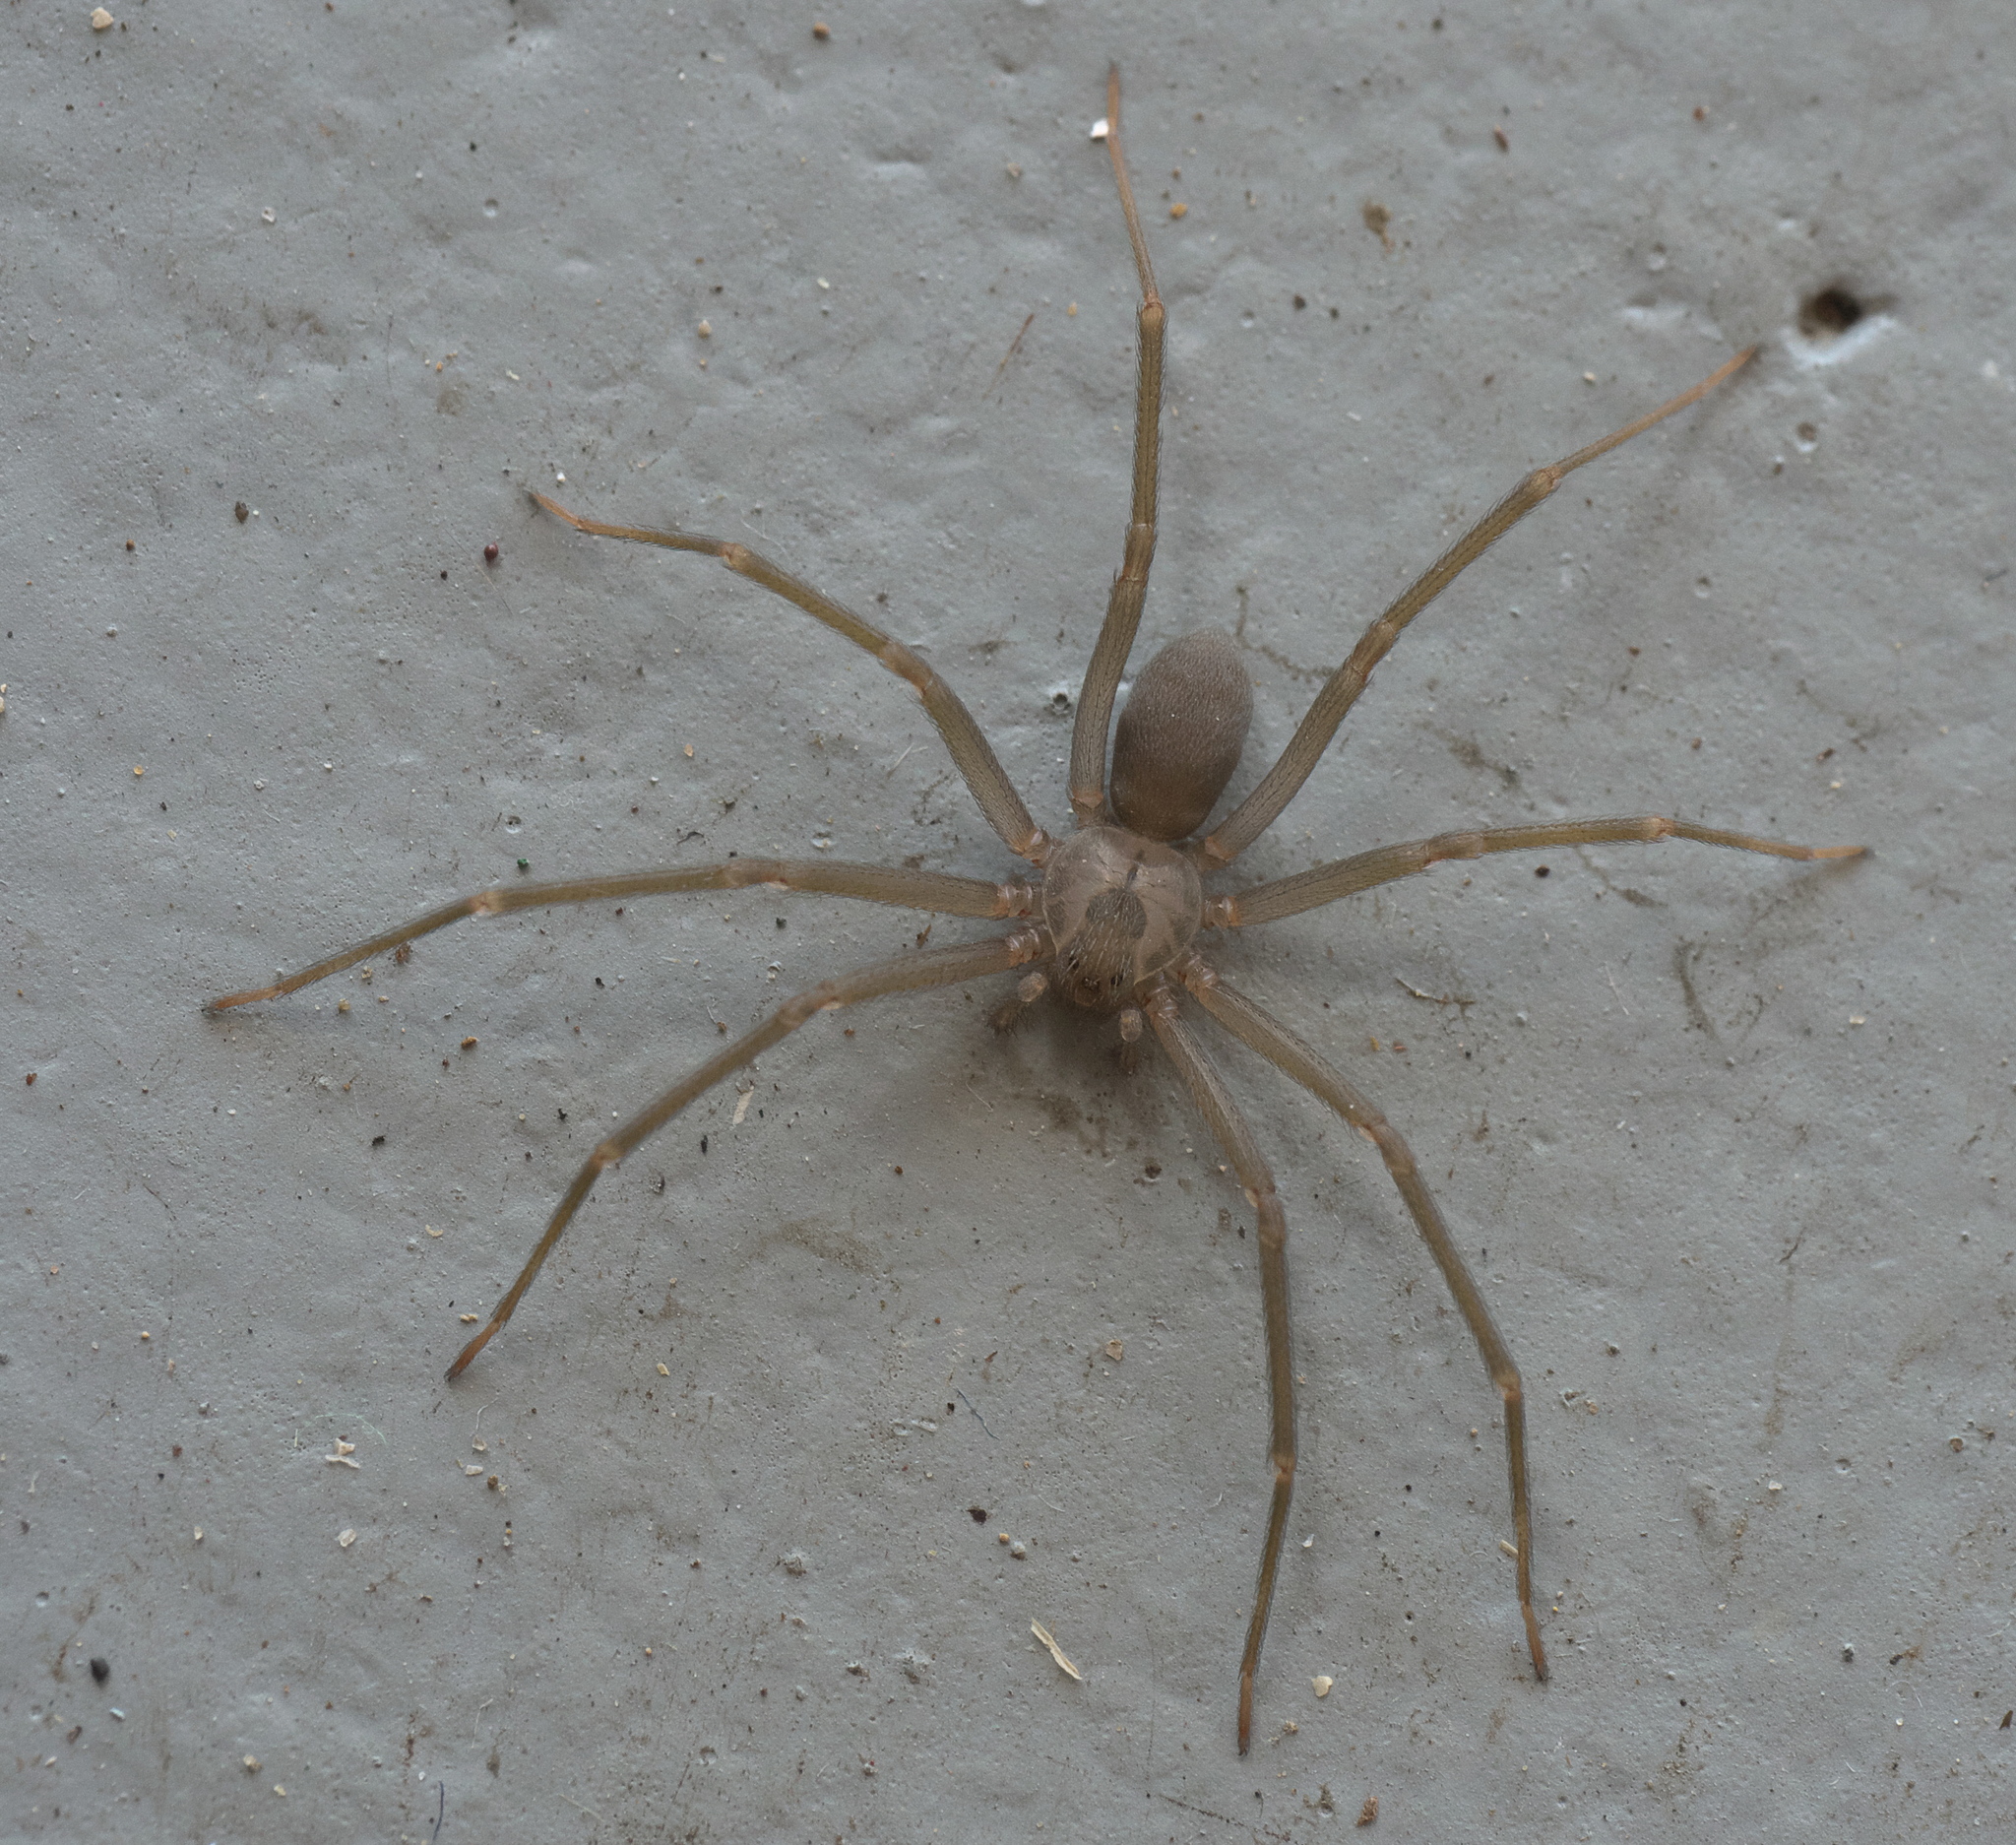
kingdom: Animalia
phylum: Arthropoda
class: Arachnida
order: Araneae
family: Sicariidae
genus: Loxosceles
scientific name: Loxosceles reclusa
